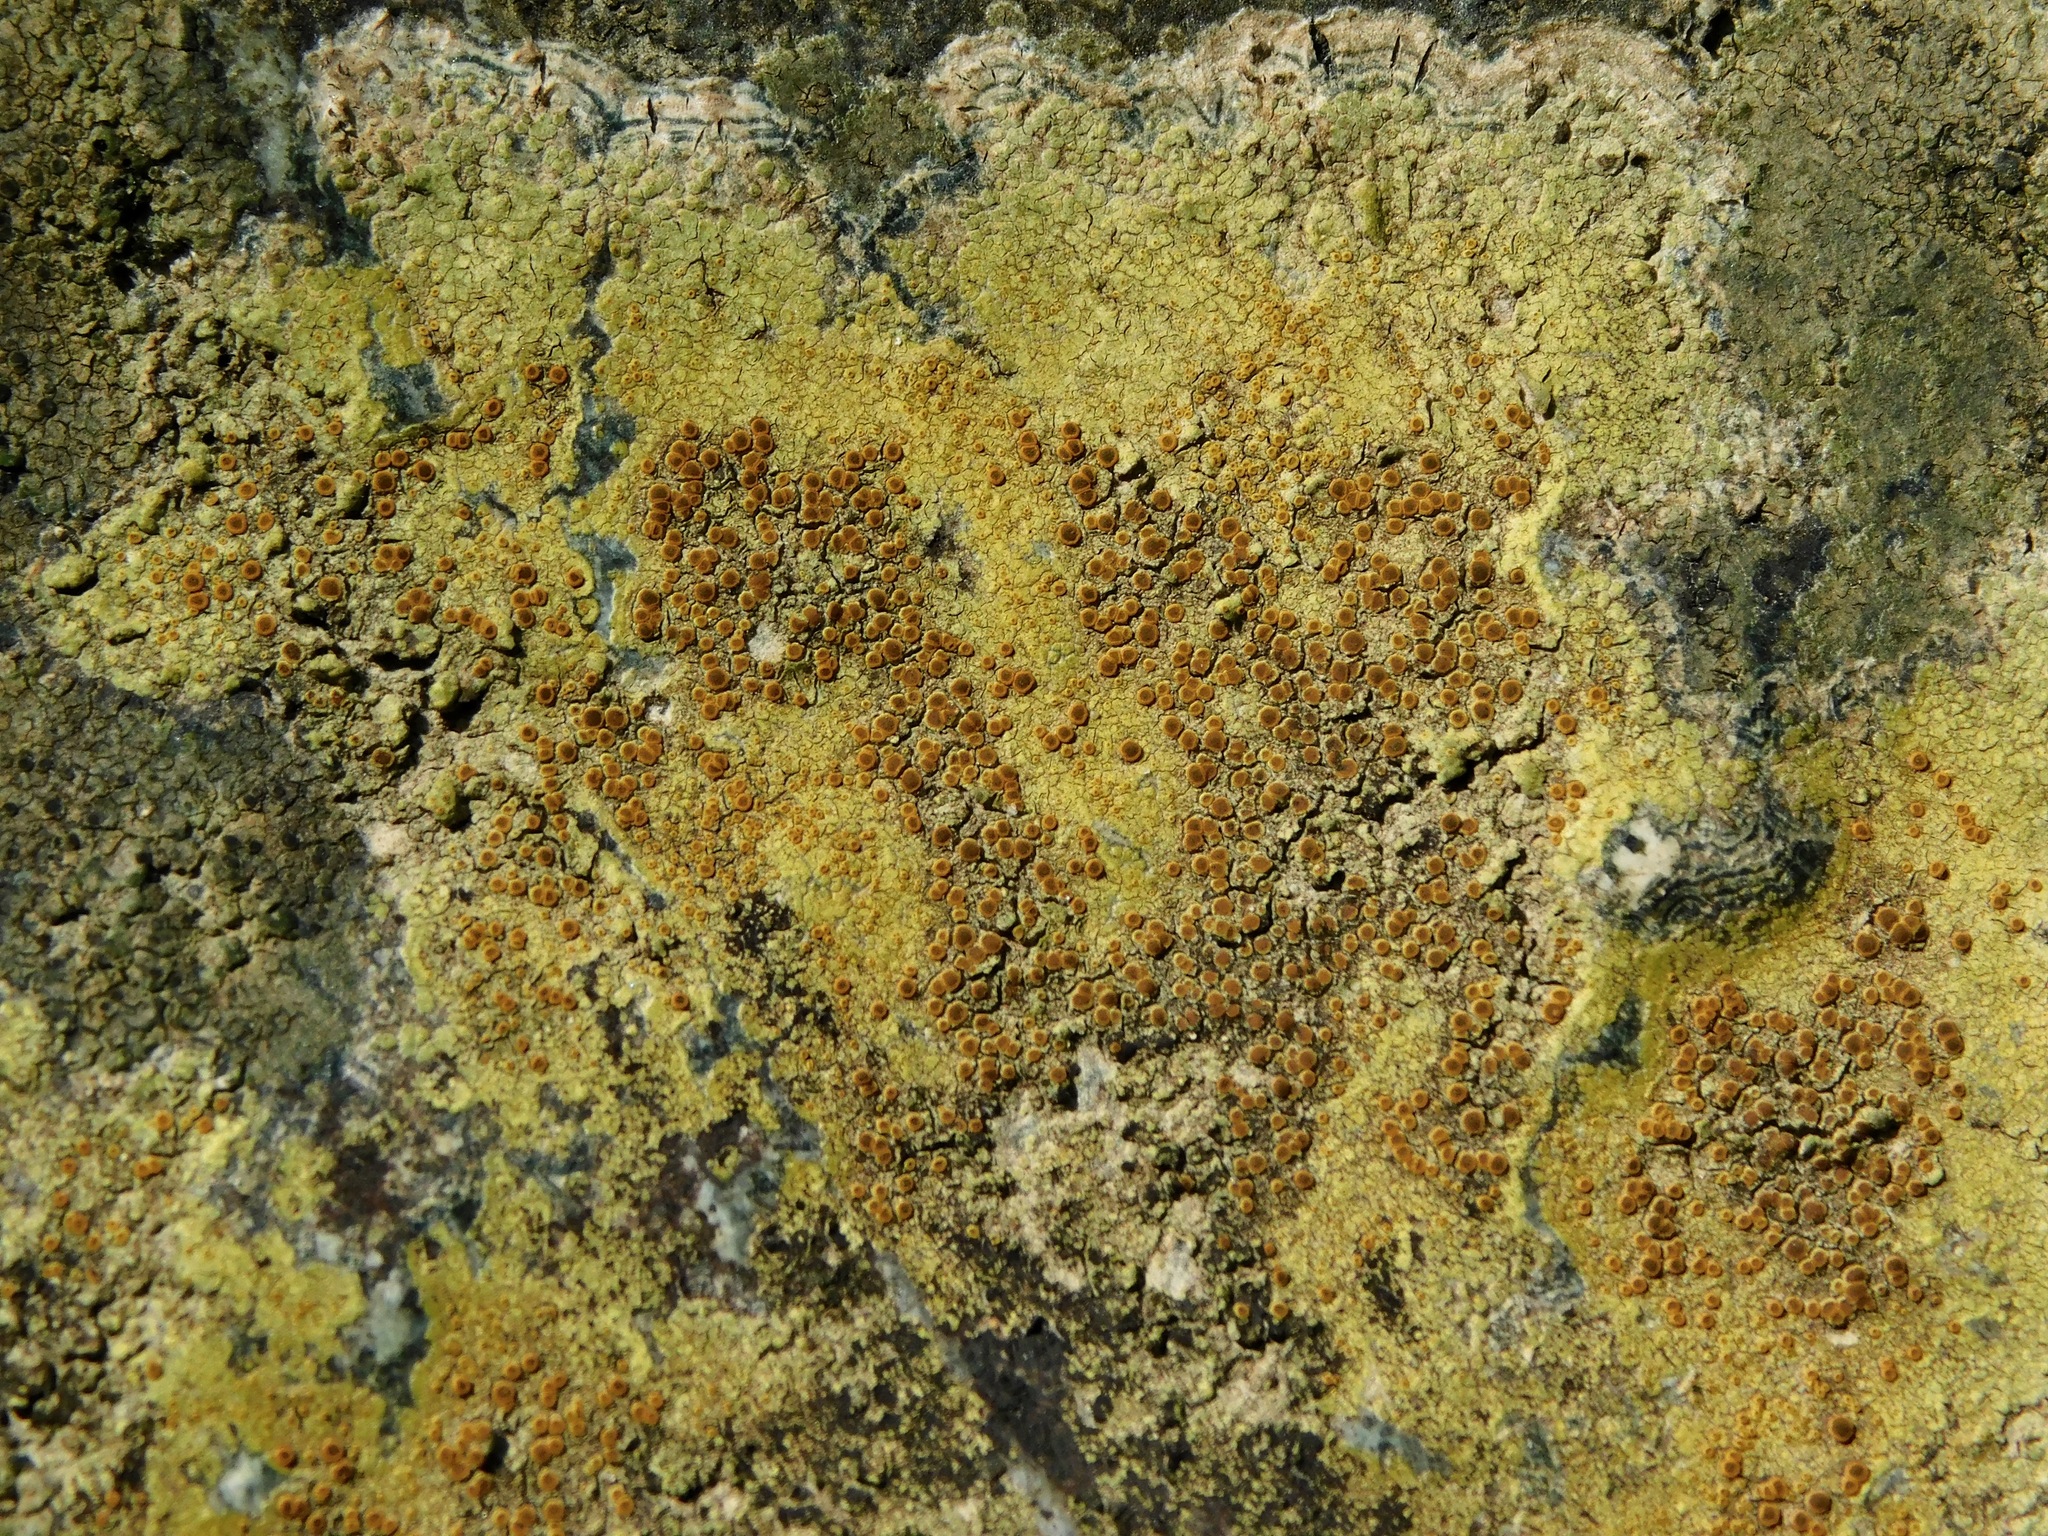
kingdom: Fungi
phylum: Ascomycota
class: Lecanoromycetes
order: Teloschistales
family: Teloschistaceae
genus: Gyalolechia
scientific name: Gyalolechia flavovirescens
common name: Sulphur firedot
